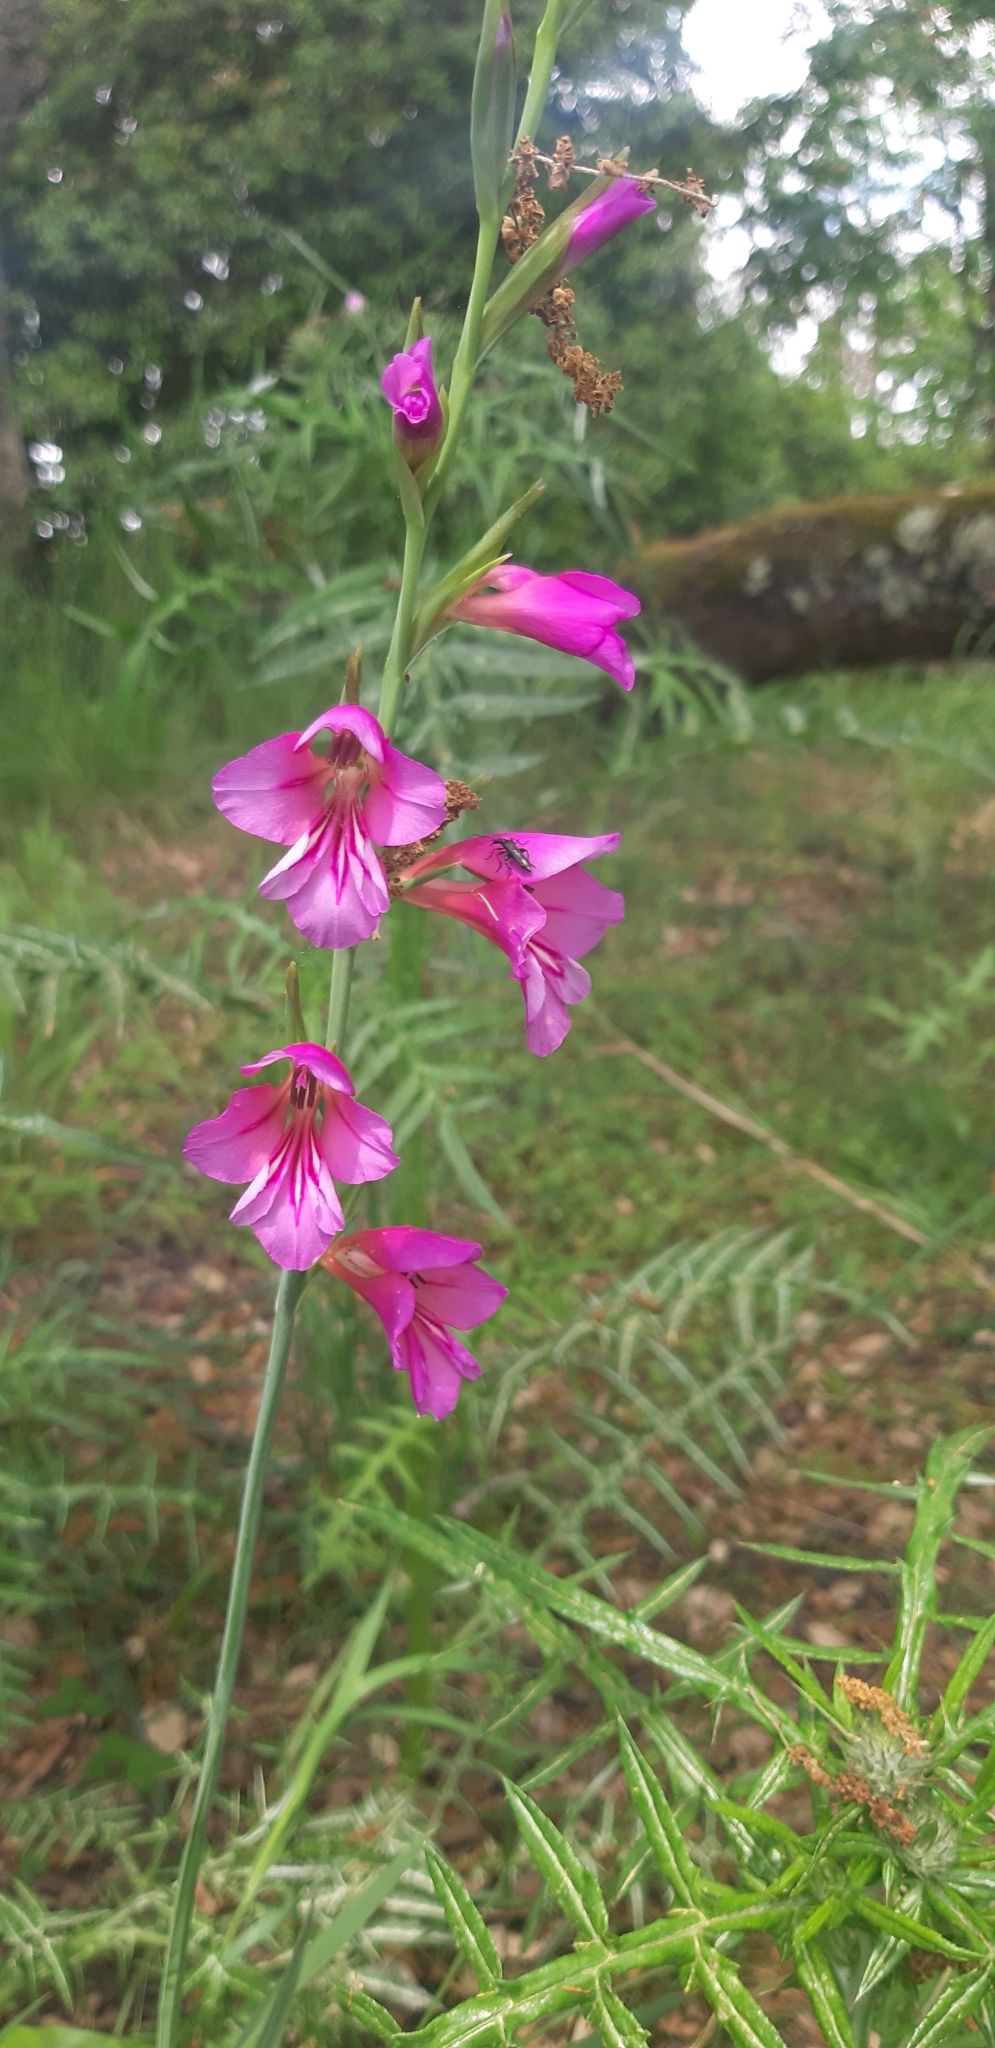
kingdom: Plantae
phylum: Tracheophyta
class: Liliopsida
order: Asparagales
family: Iridaceae
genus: Gladiolus
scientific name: Gladiolus byzantinus
